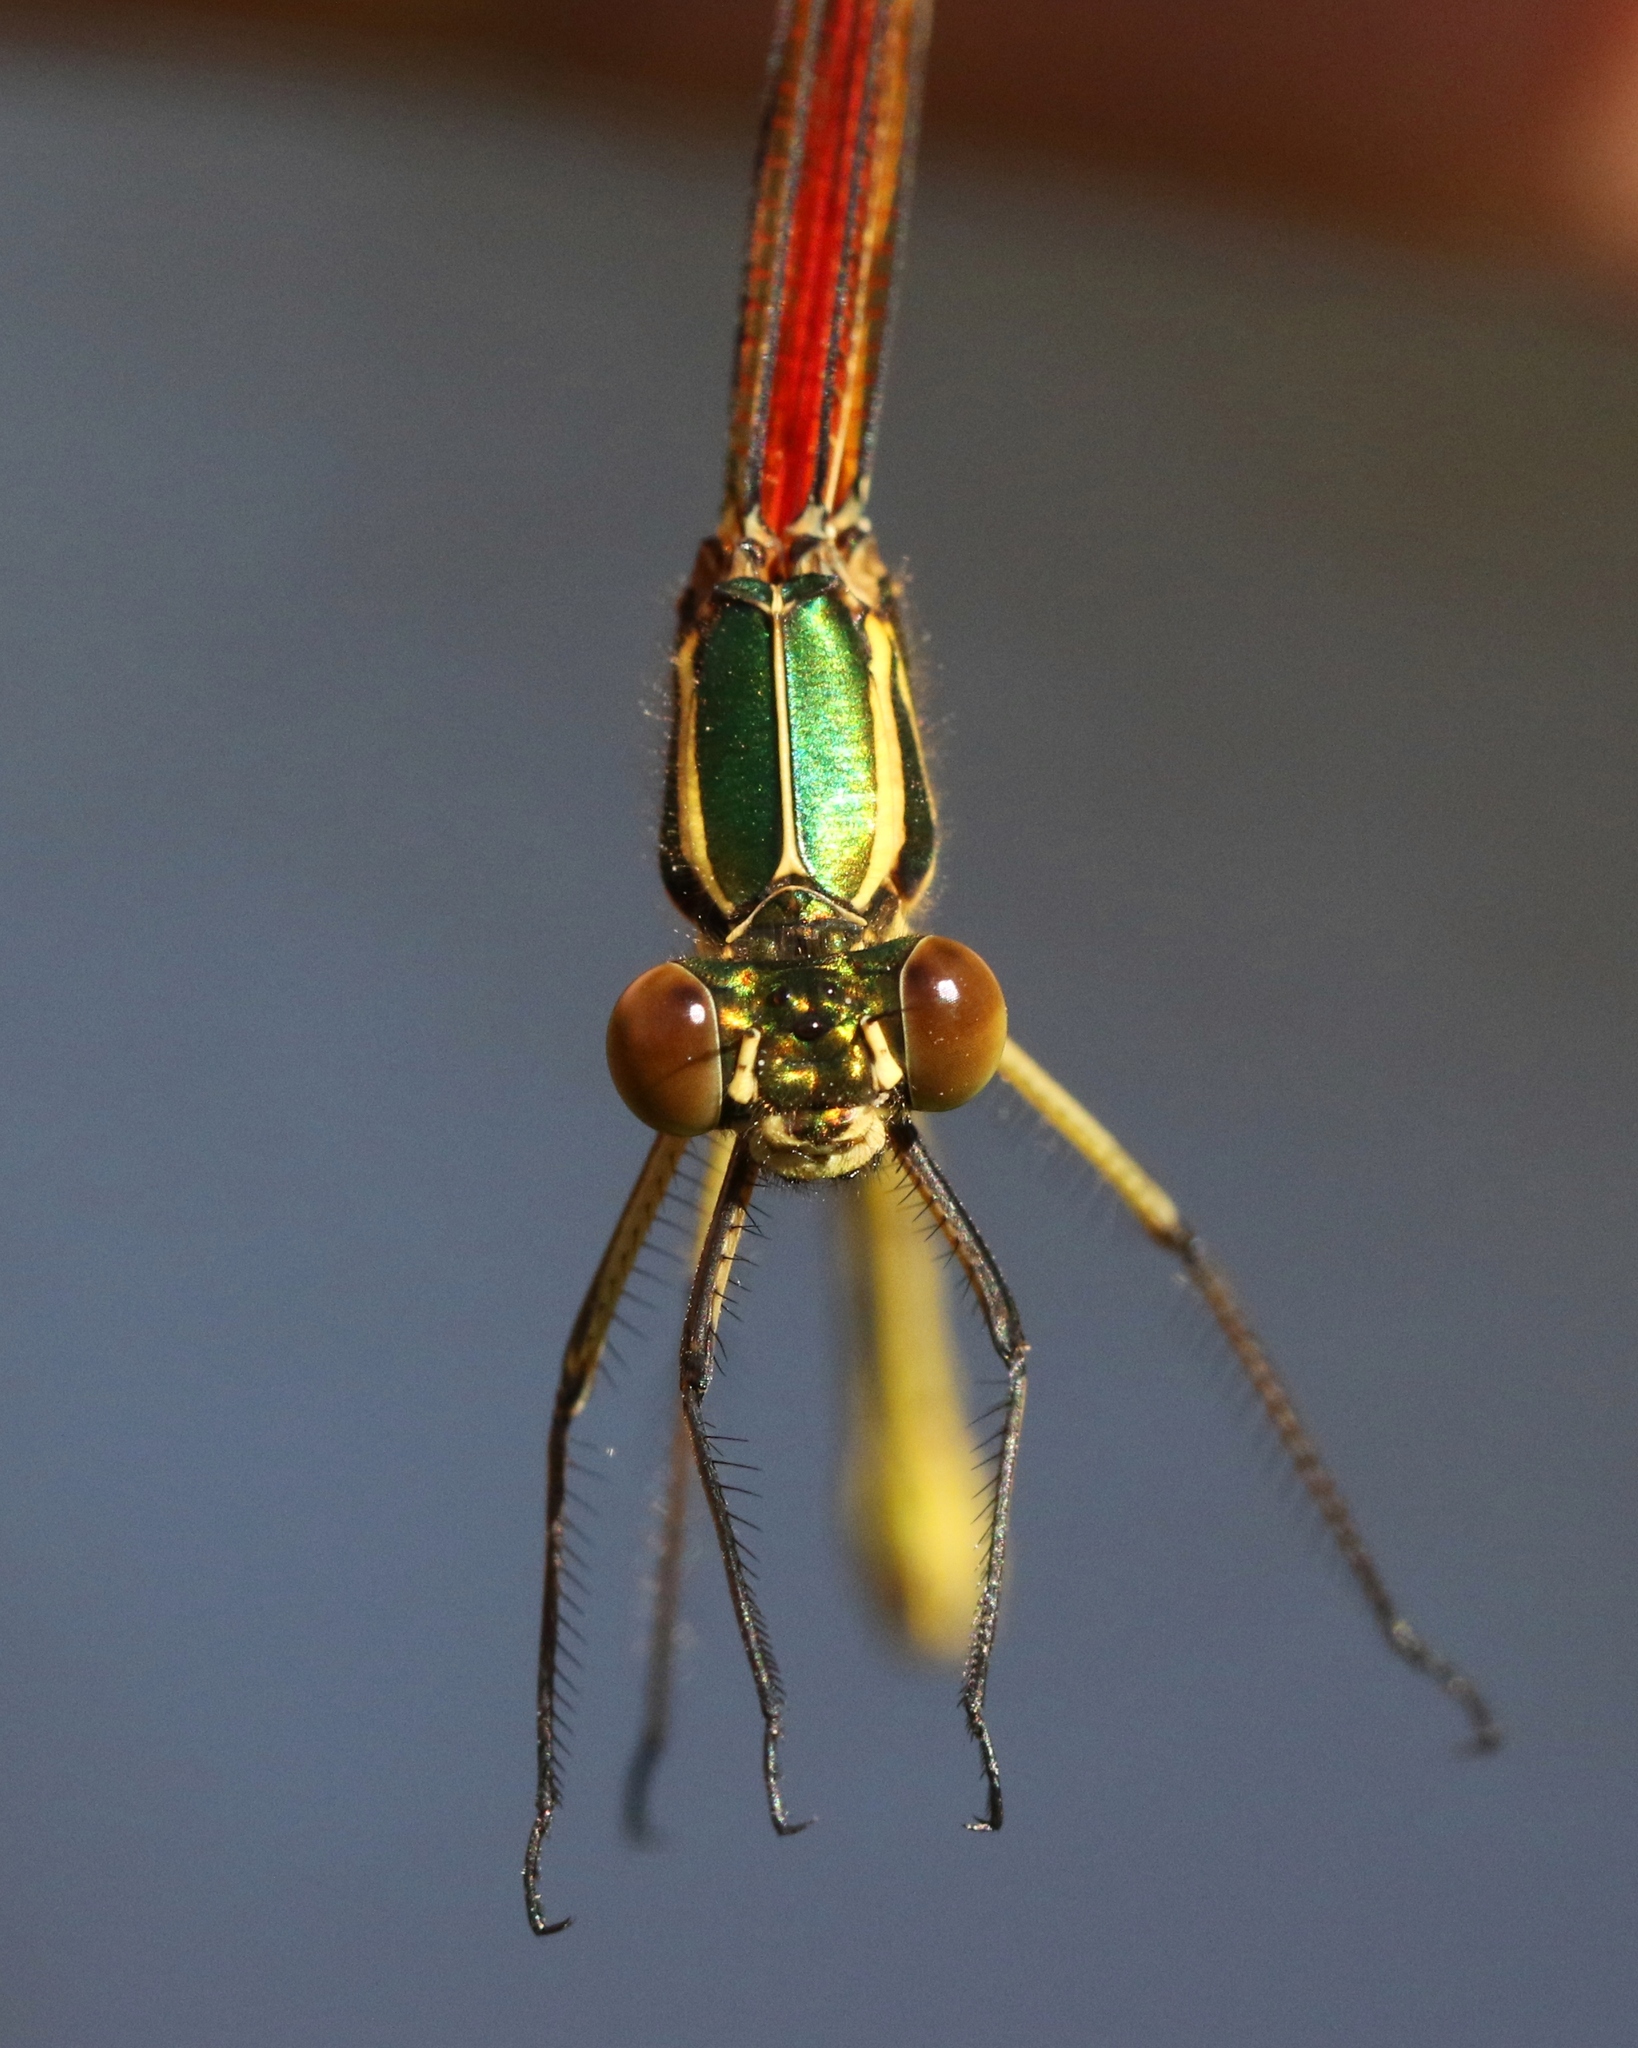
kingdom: Animalia
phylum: Arthropoda
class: Insecta
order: Odonata
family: Calopterygidae
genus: Hetaerina
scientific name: Hetaerina americana
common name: American rubyspot
